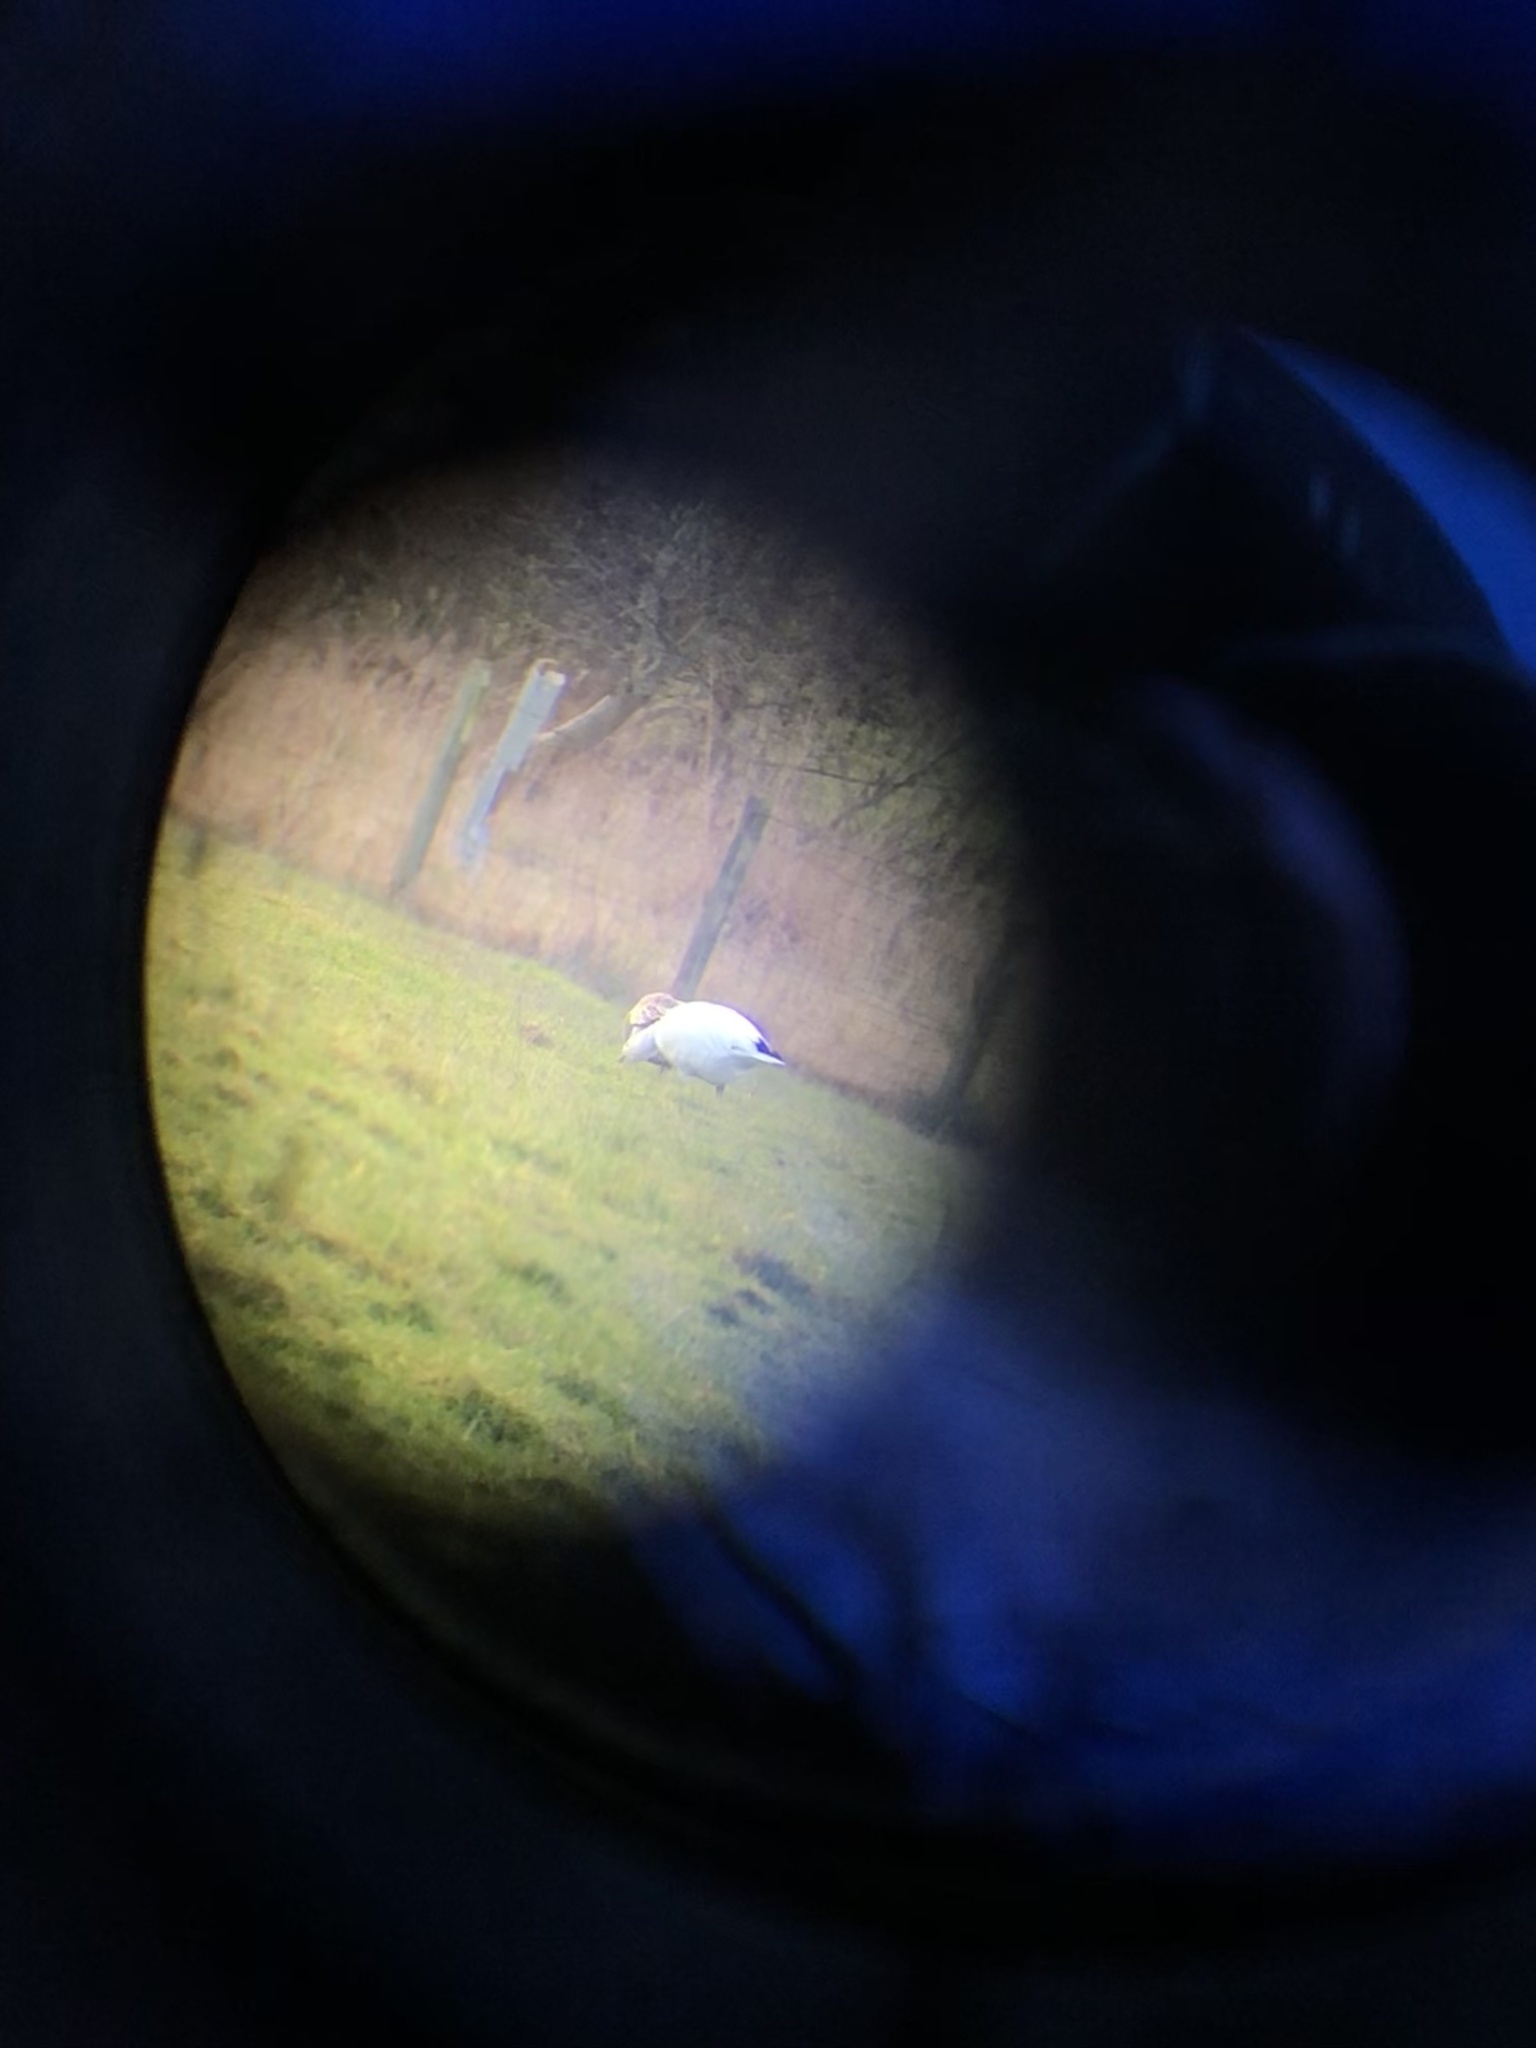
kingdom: Animalia
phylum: Chordata
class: Aves
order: Anseriformes
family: Anatidae
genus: Anser
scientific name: Anser caerulescens
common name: Snow goose
